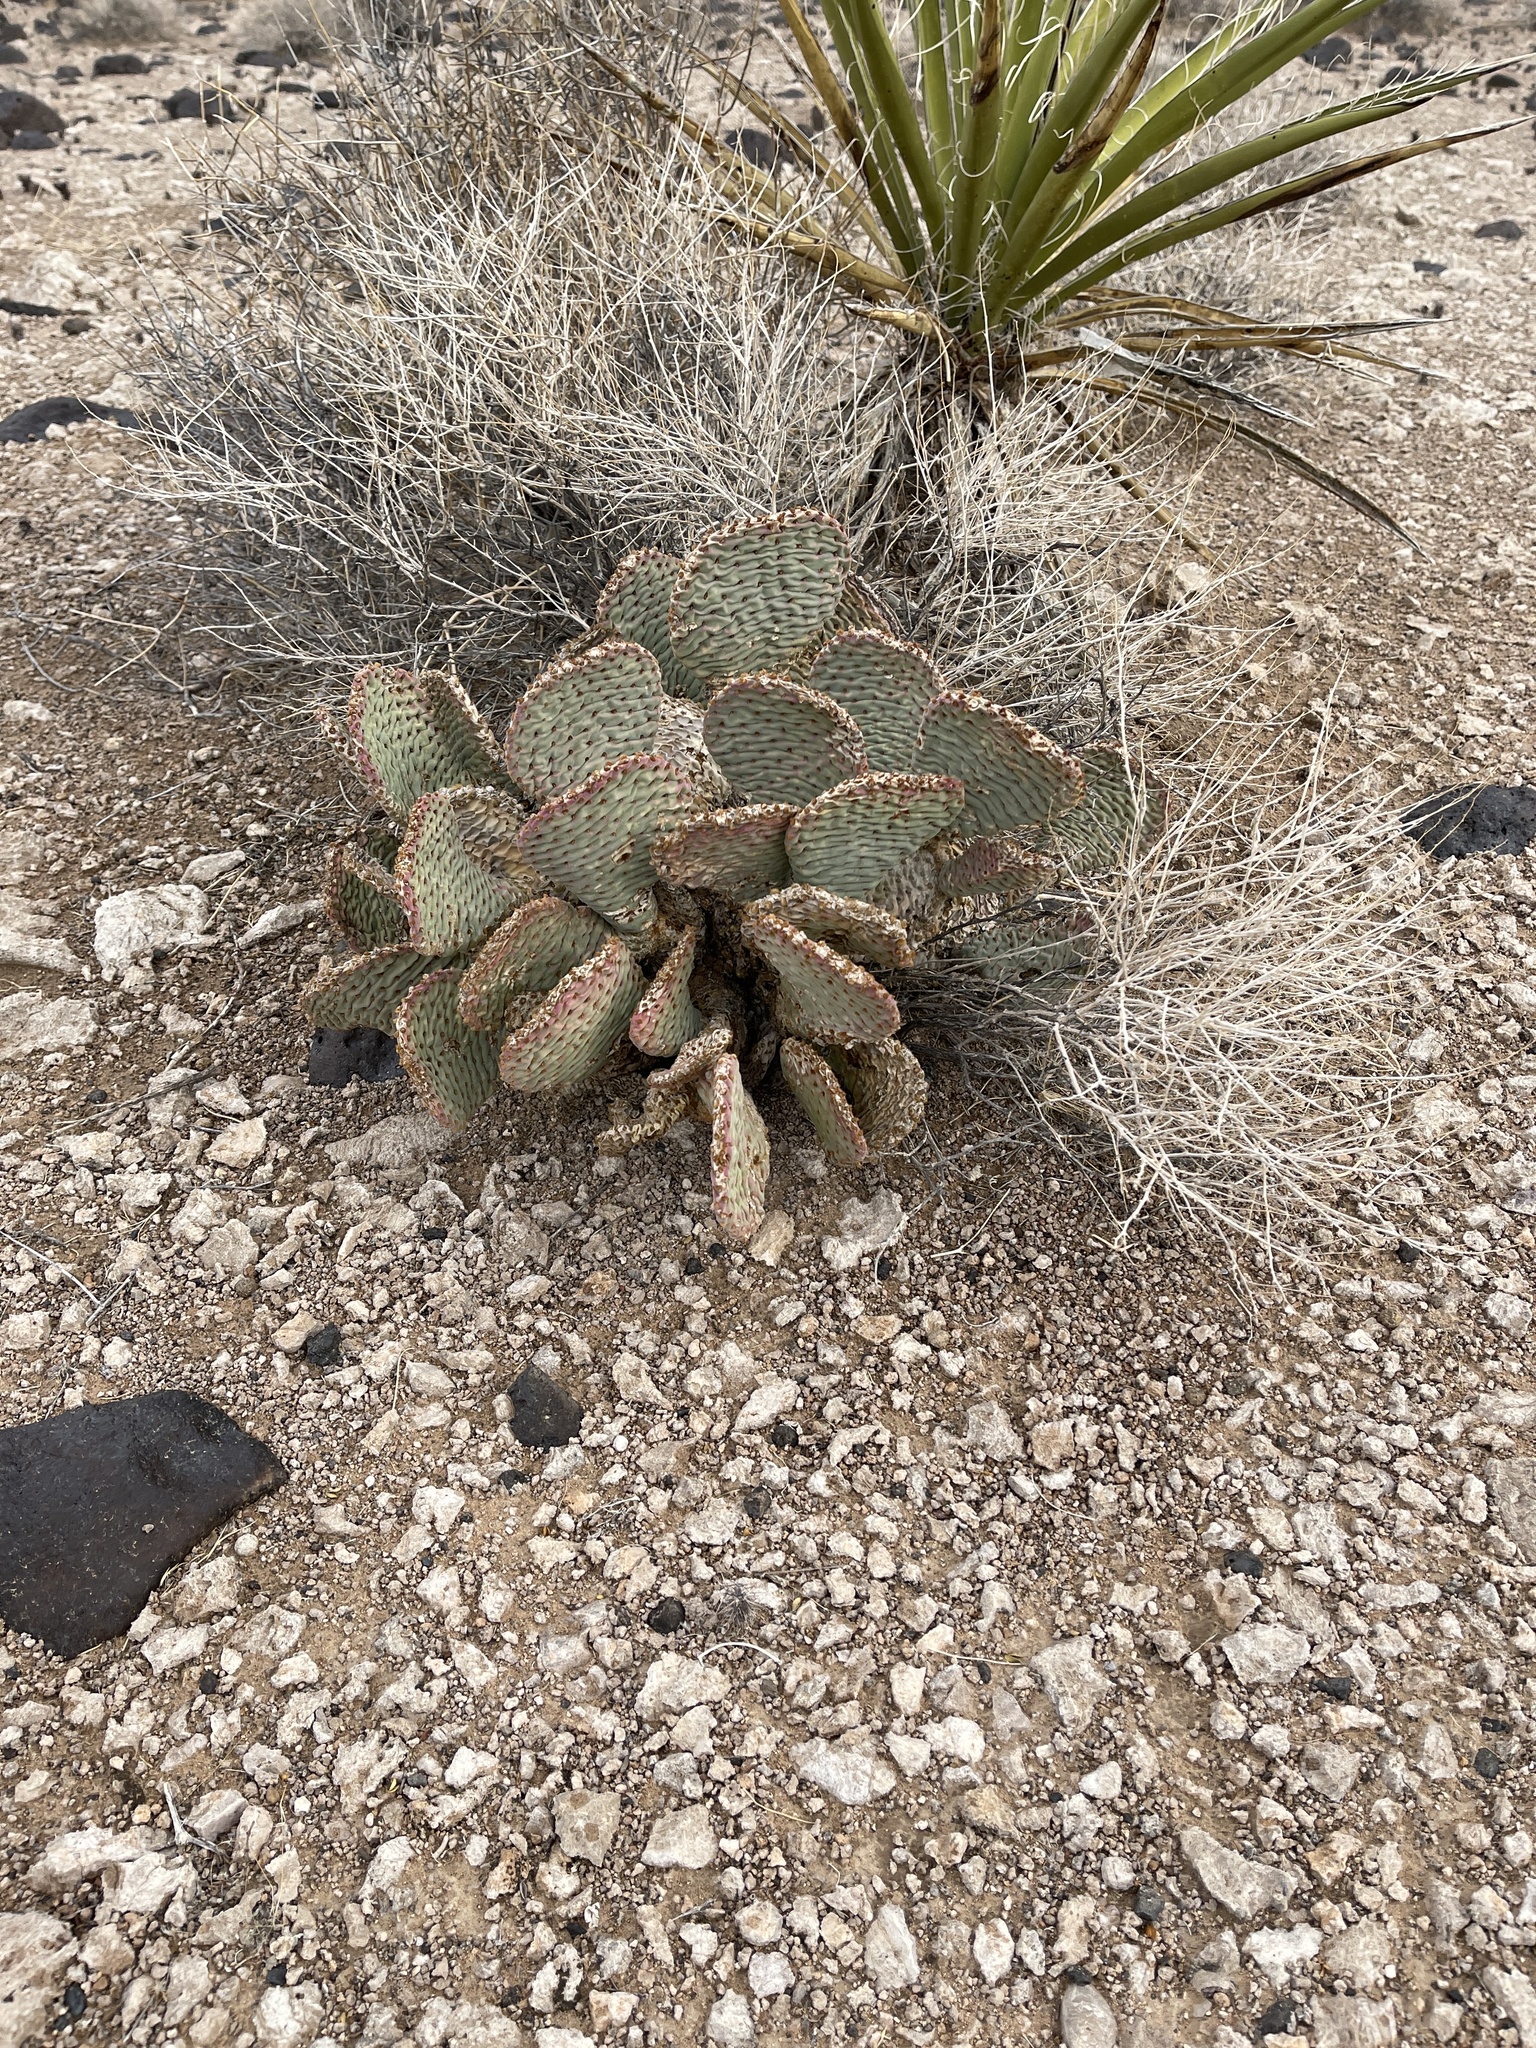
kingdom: Plantae
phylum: Tracheophyta
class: Magnoliopsida
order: Caryophyllales
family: Cactaceae
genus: Opuntia
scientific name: Opuntia basilaris
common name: Beavertail prickly-pear
